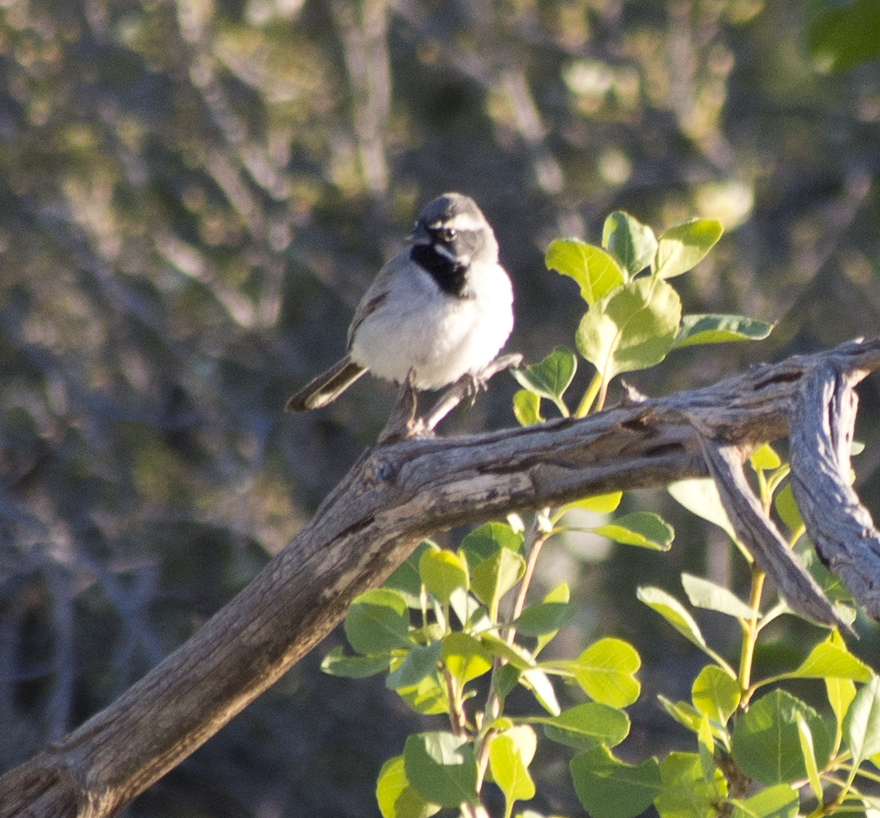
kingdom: Animalia
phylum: Chordata
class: Aves
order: Passeriformes
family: Passerellidae
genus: Amphispiza
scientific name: Amphispiza bilineata
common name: Black-throated sparrow
